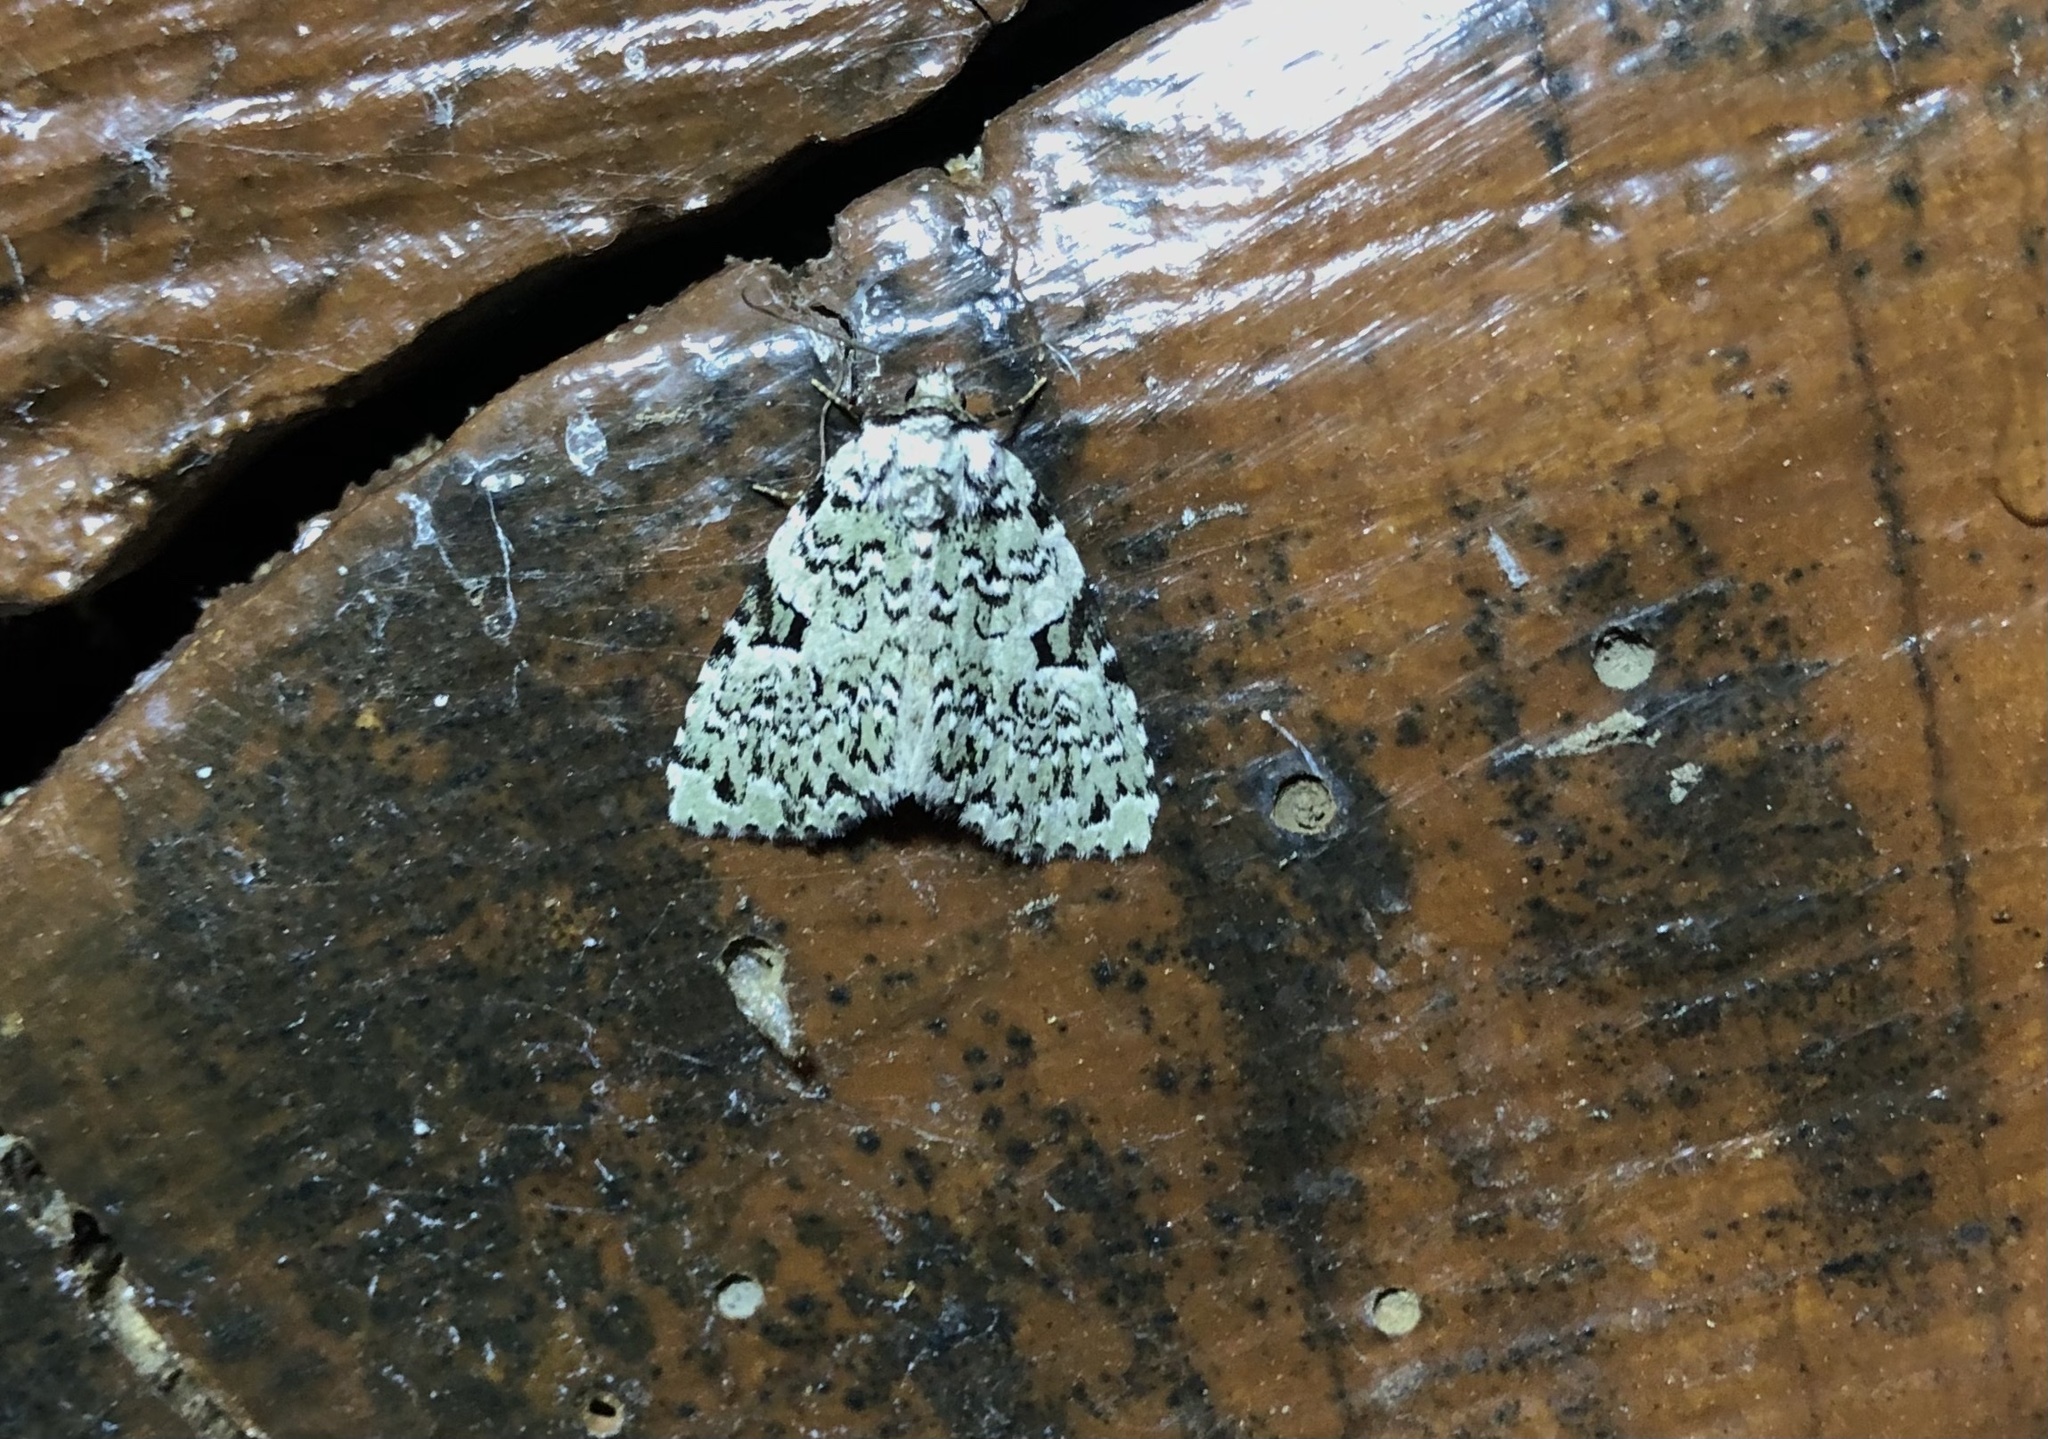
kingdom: Animalia
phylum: Arthropoda
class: Insecta
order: Lepidoptera
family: Noctuidae
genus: Leuconycta
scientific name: Leuconycta diphteroides
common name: Green leuconycta moth
